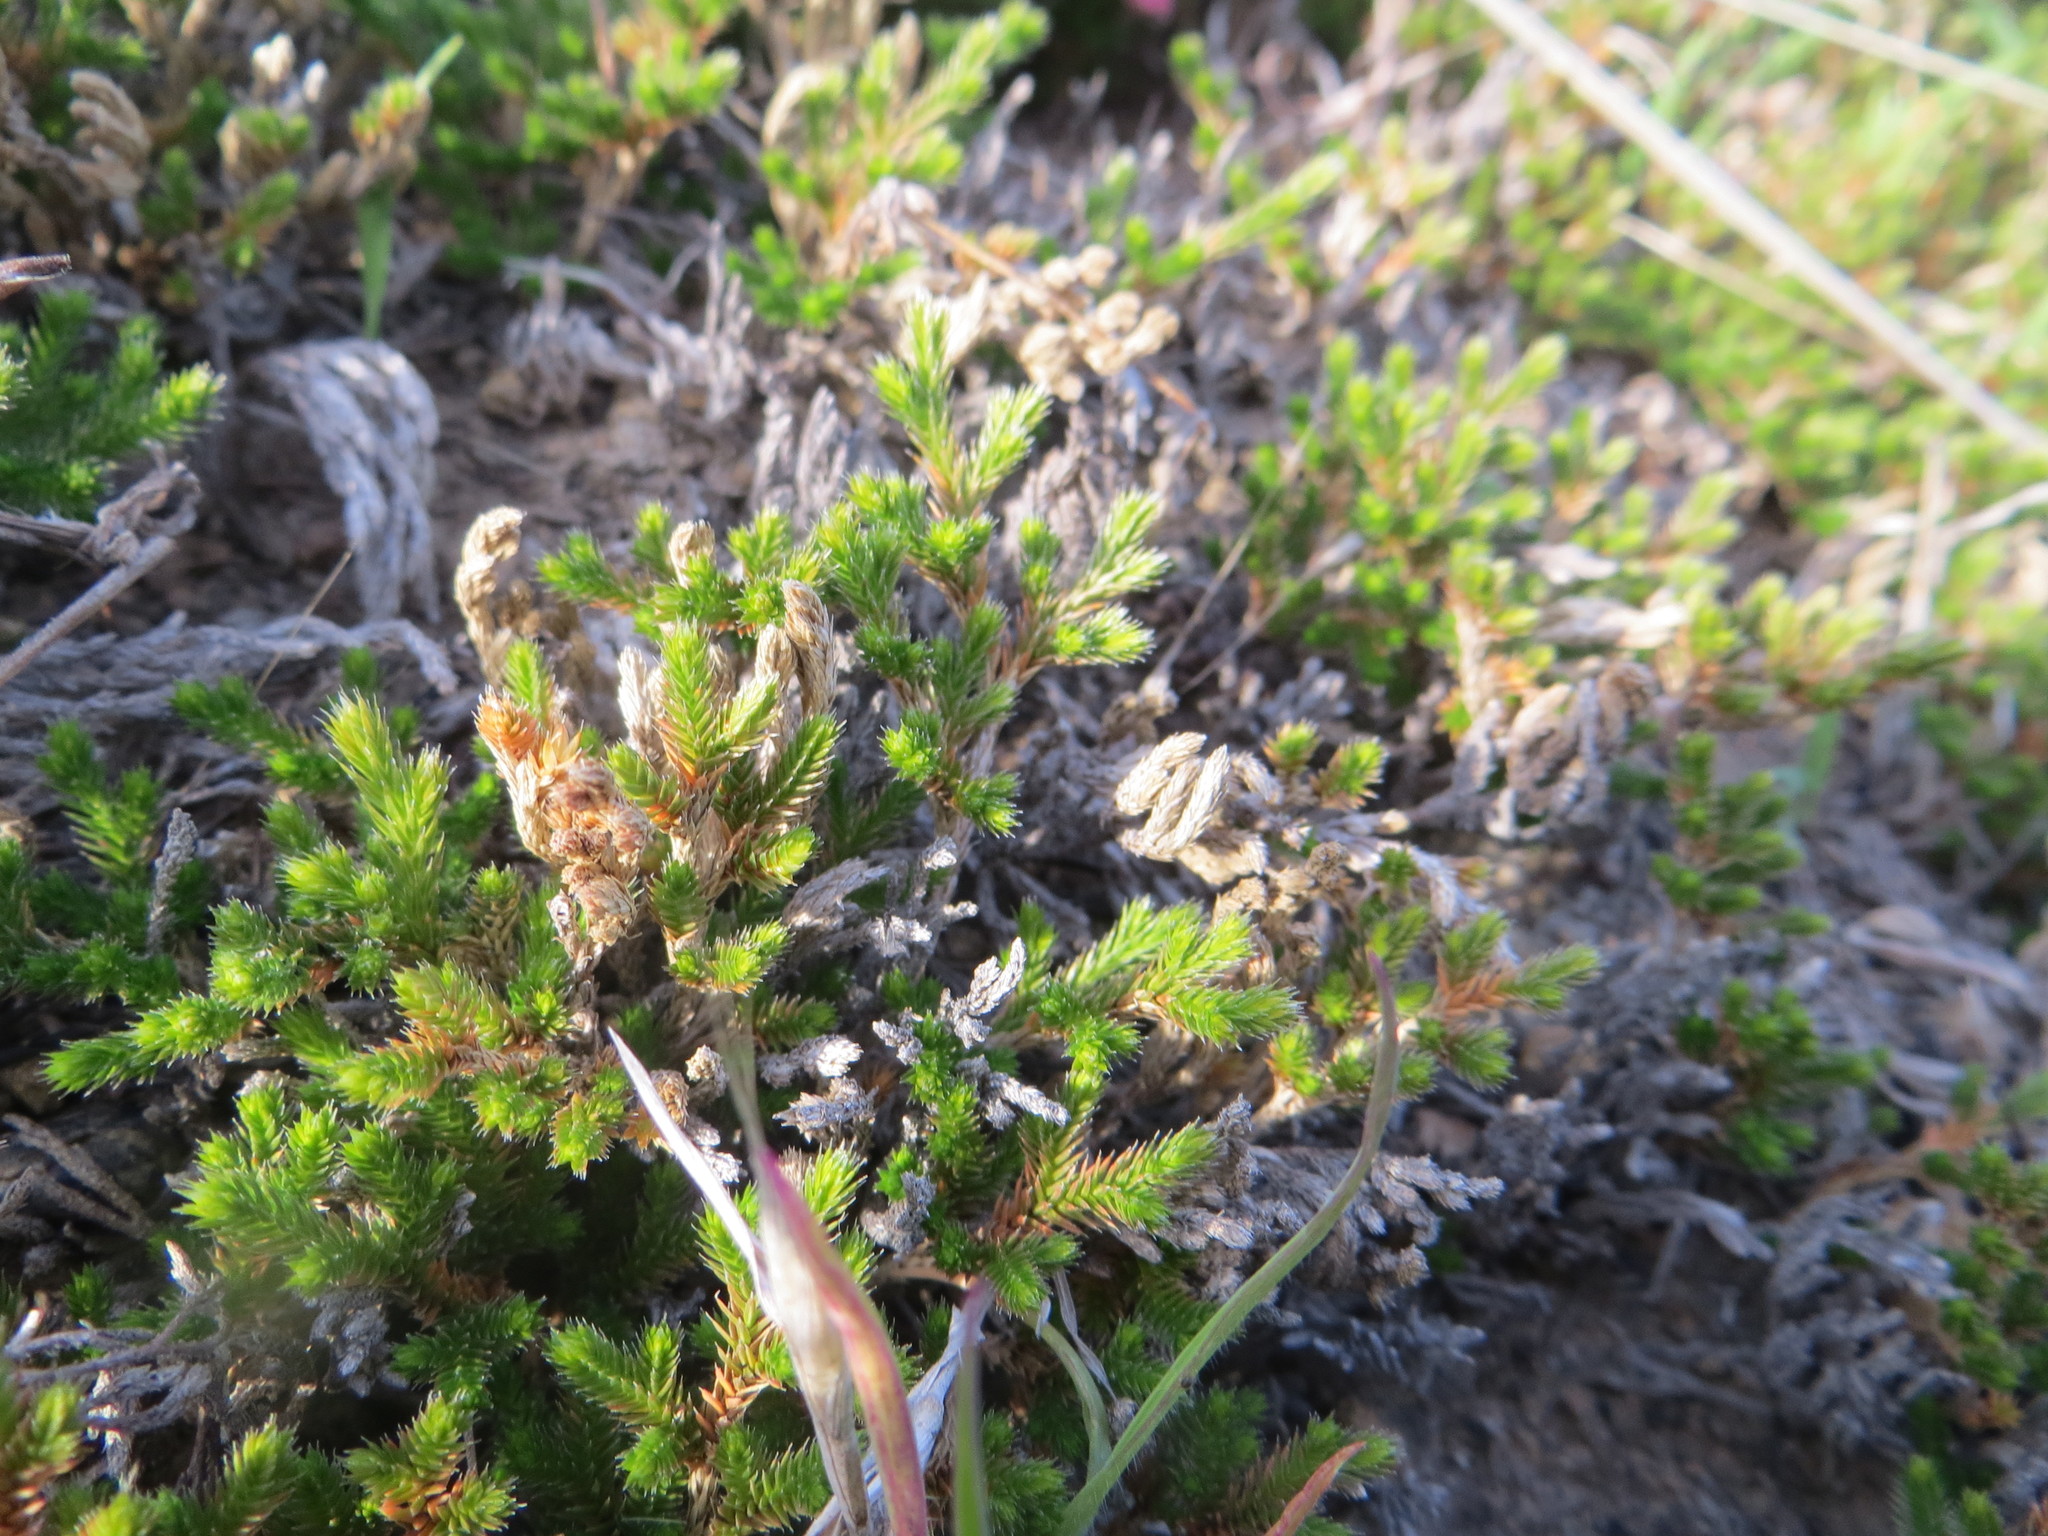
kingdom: Plantae
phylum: Tracheophyta
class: Lycopodiopsida
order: Selaginellales
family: Selaginellaceae
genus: Selaginella
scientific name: Selaginella bigelovii
